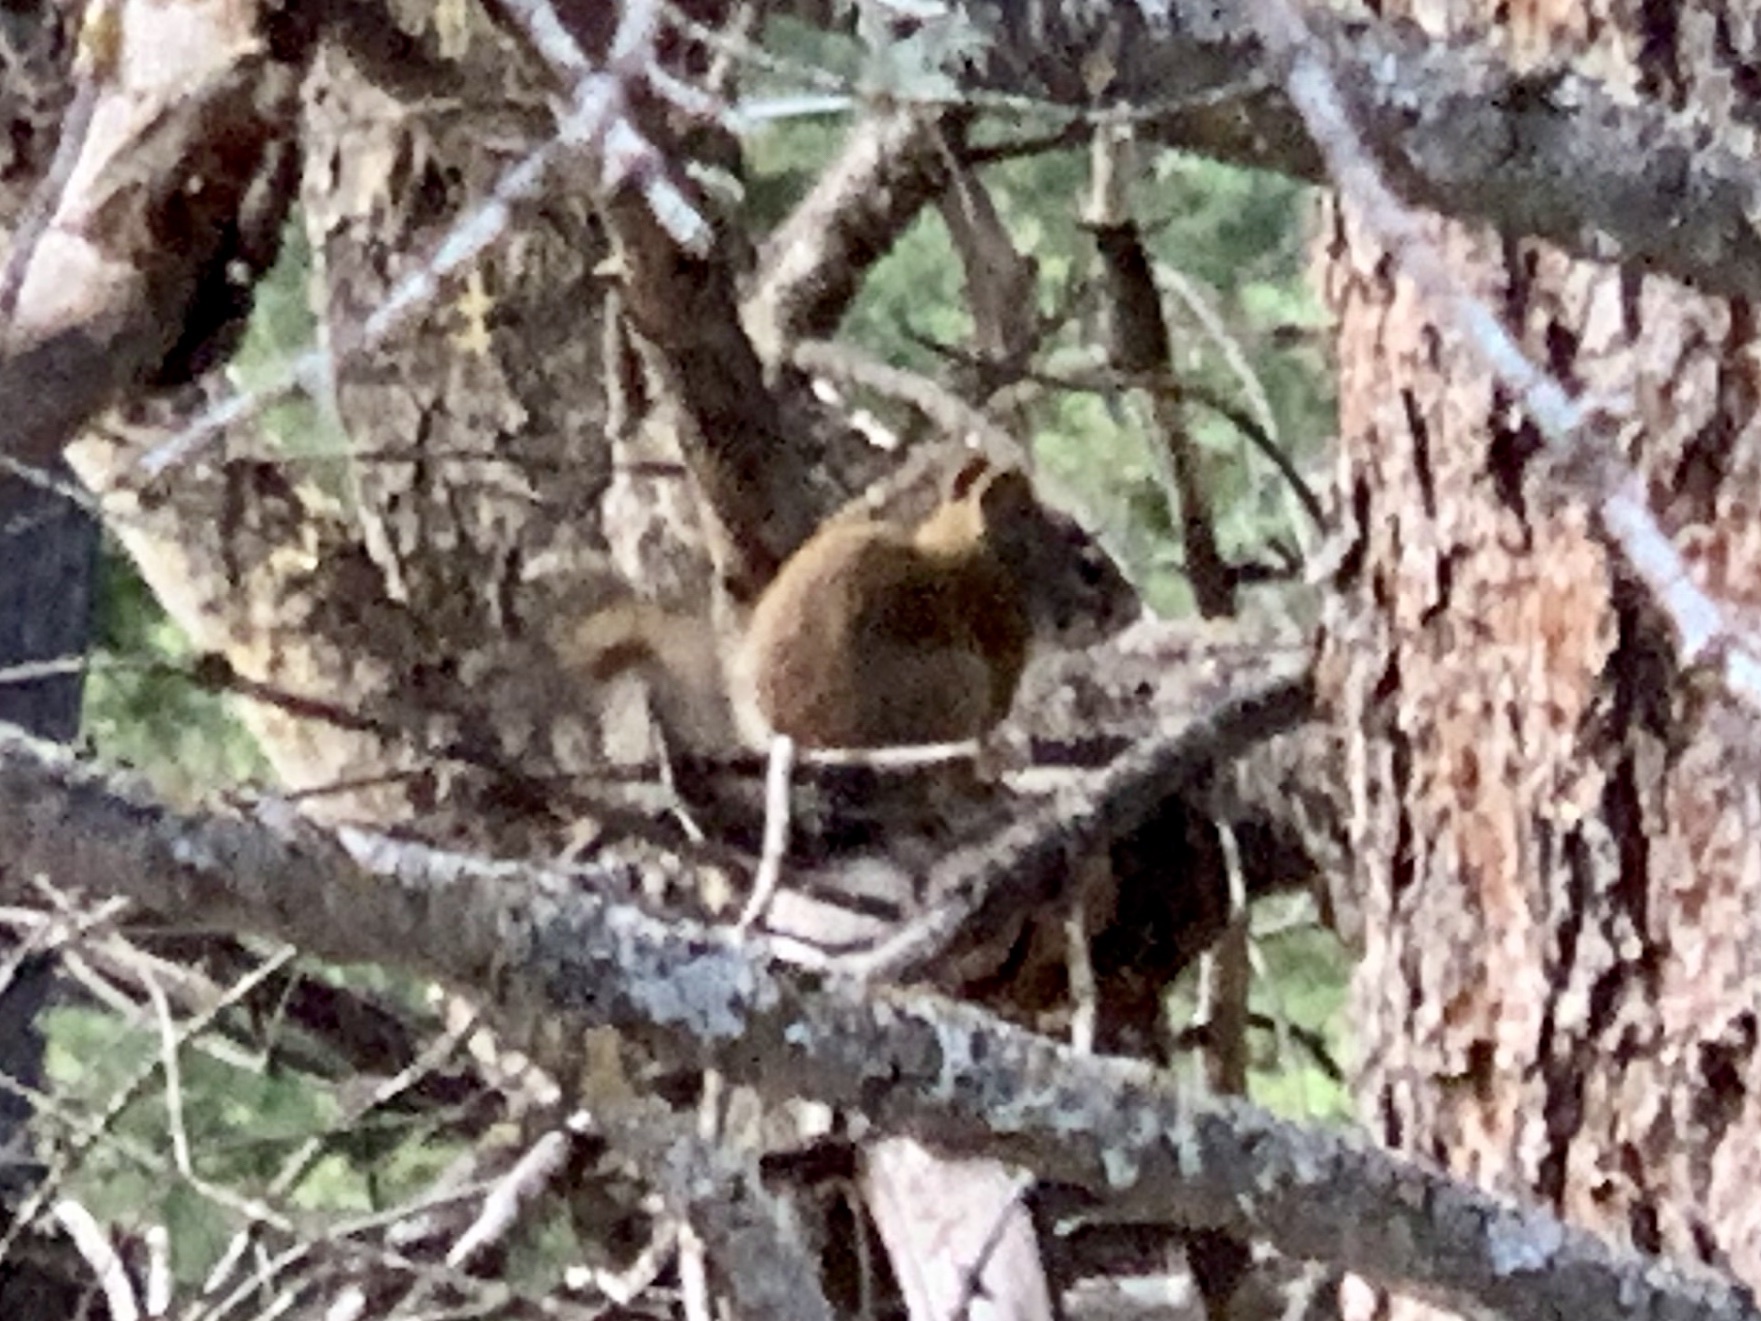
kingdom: Animalia
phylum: Chordata
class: Mammalia
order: Rodentia
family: Sciuridae
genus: Tamiasciurus
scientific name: Tamiasciurus hudsonicus
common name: Red squirrel
